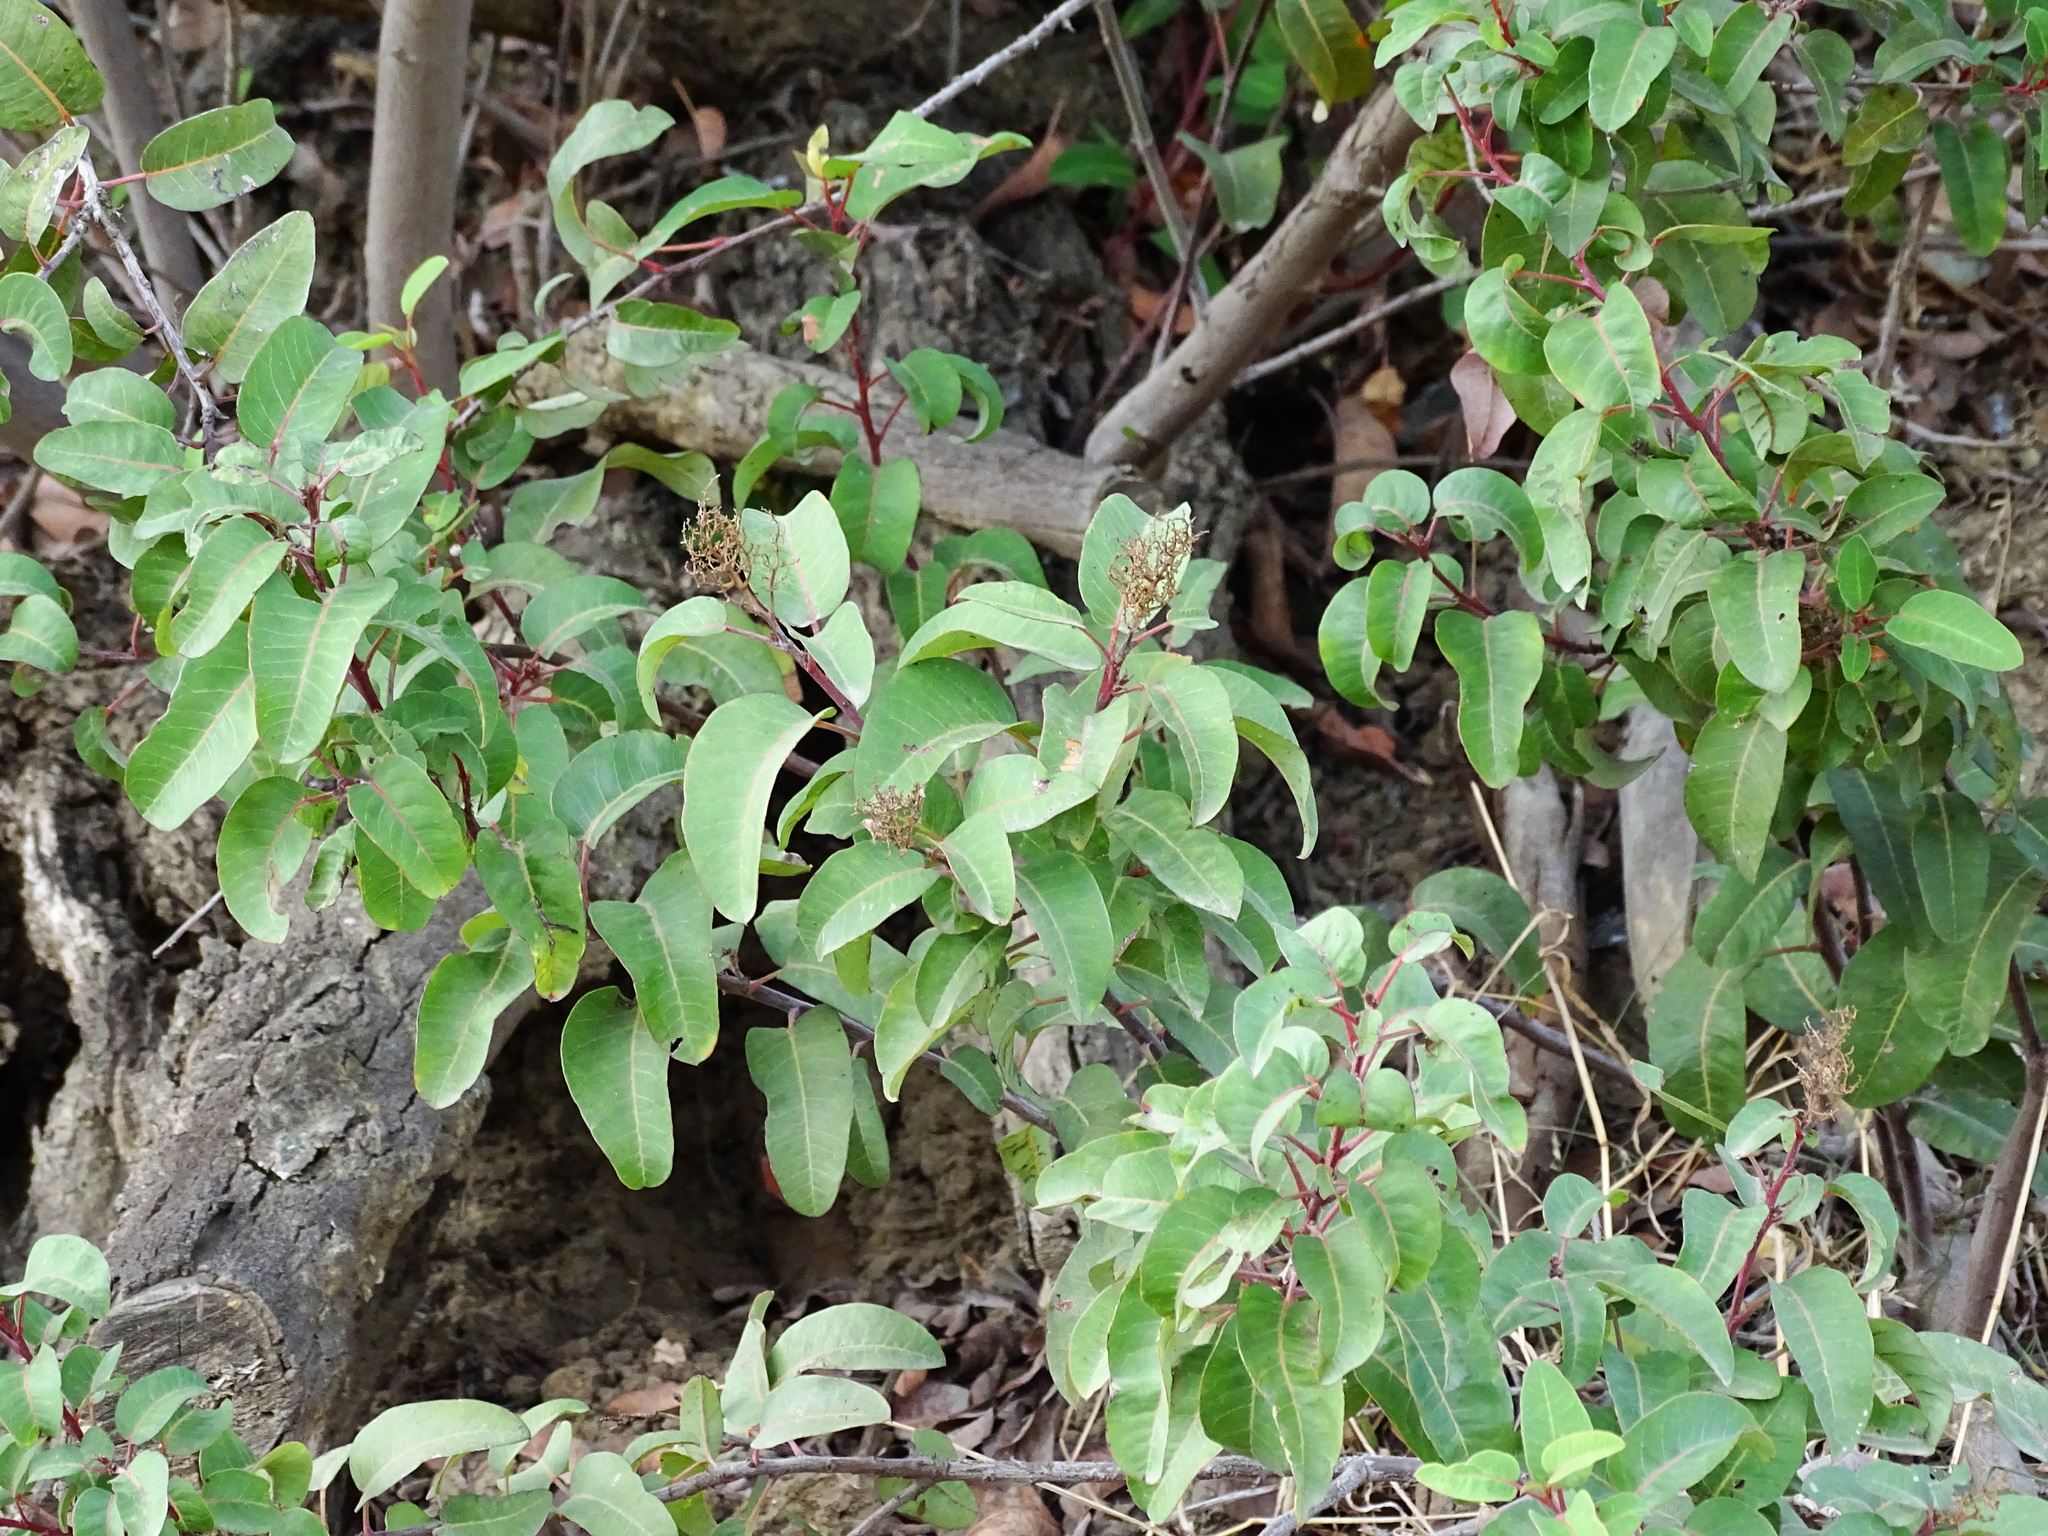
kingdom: Plantae
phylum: Tracheophyta
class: Magnoliopsida
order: Sapindales
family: Anacardiaceae
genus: Malosma
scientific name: Malosma laurina
